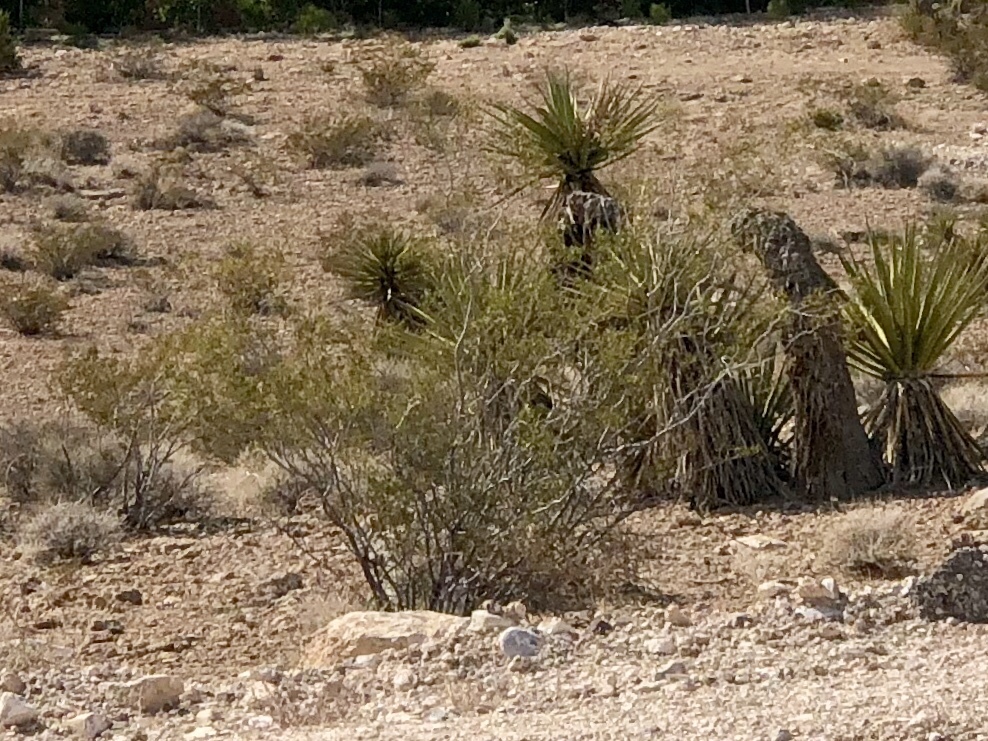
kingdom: Plantae
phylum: Tracheophyta
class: Magnoliopsida
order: Zygophyllales
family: Zygophyllaceae
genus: Larrea
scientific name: Larrea tridentata
